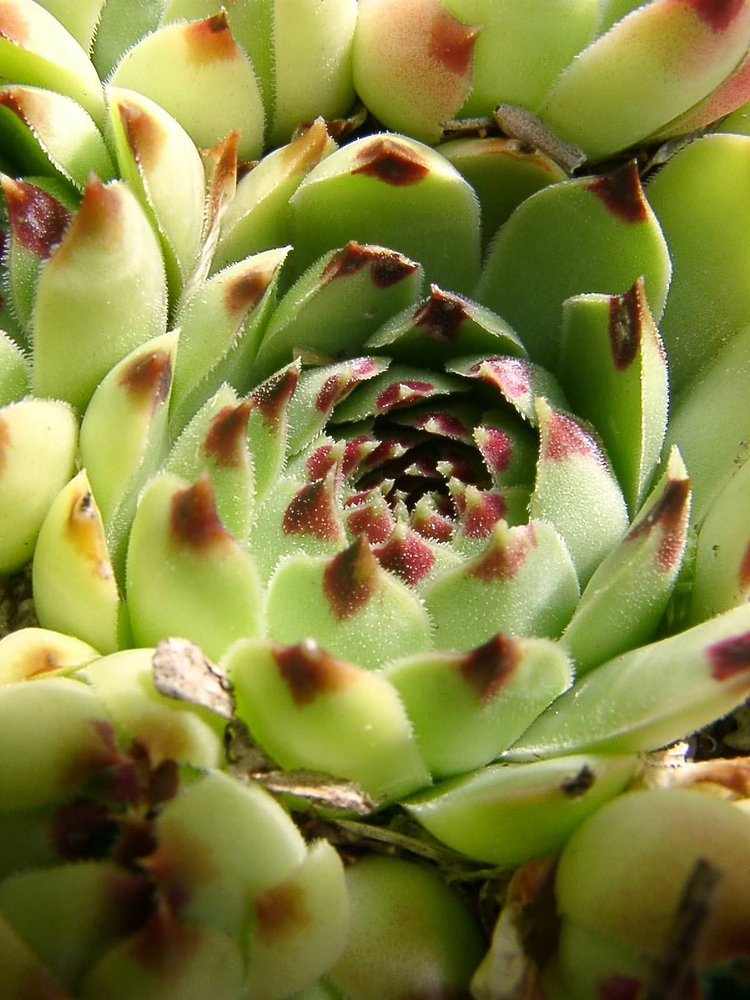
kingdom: Plantae
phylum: Tracheophyta
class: Magnoliopsida
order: Saxifragales
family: Crassulaceae
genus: Sempervivum
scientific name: Sempervivum calcareum
